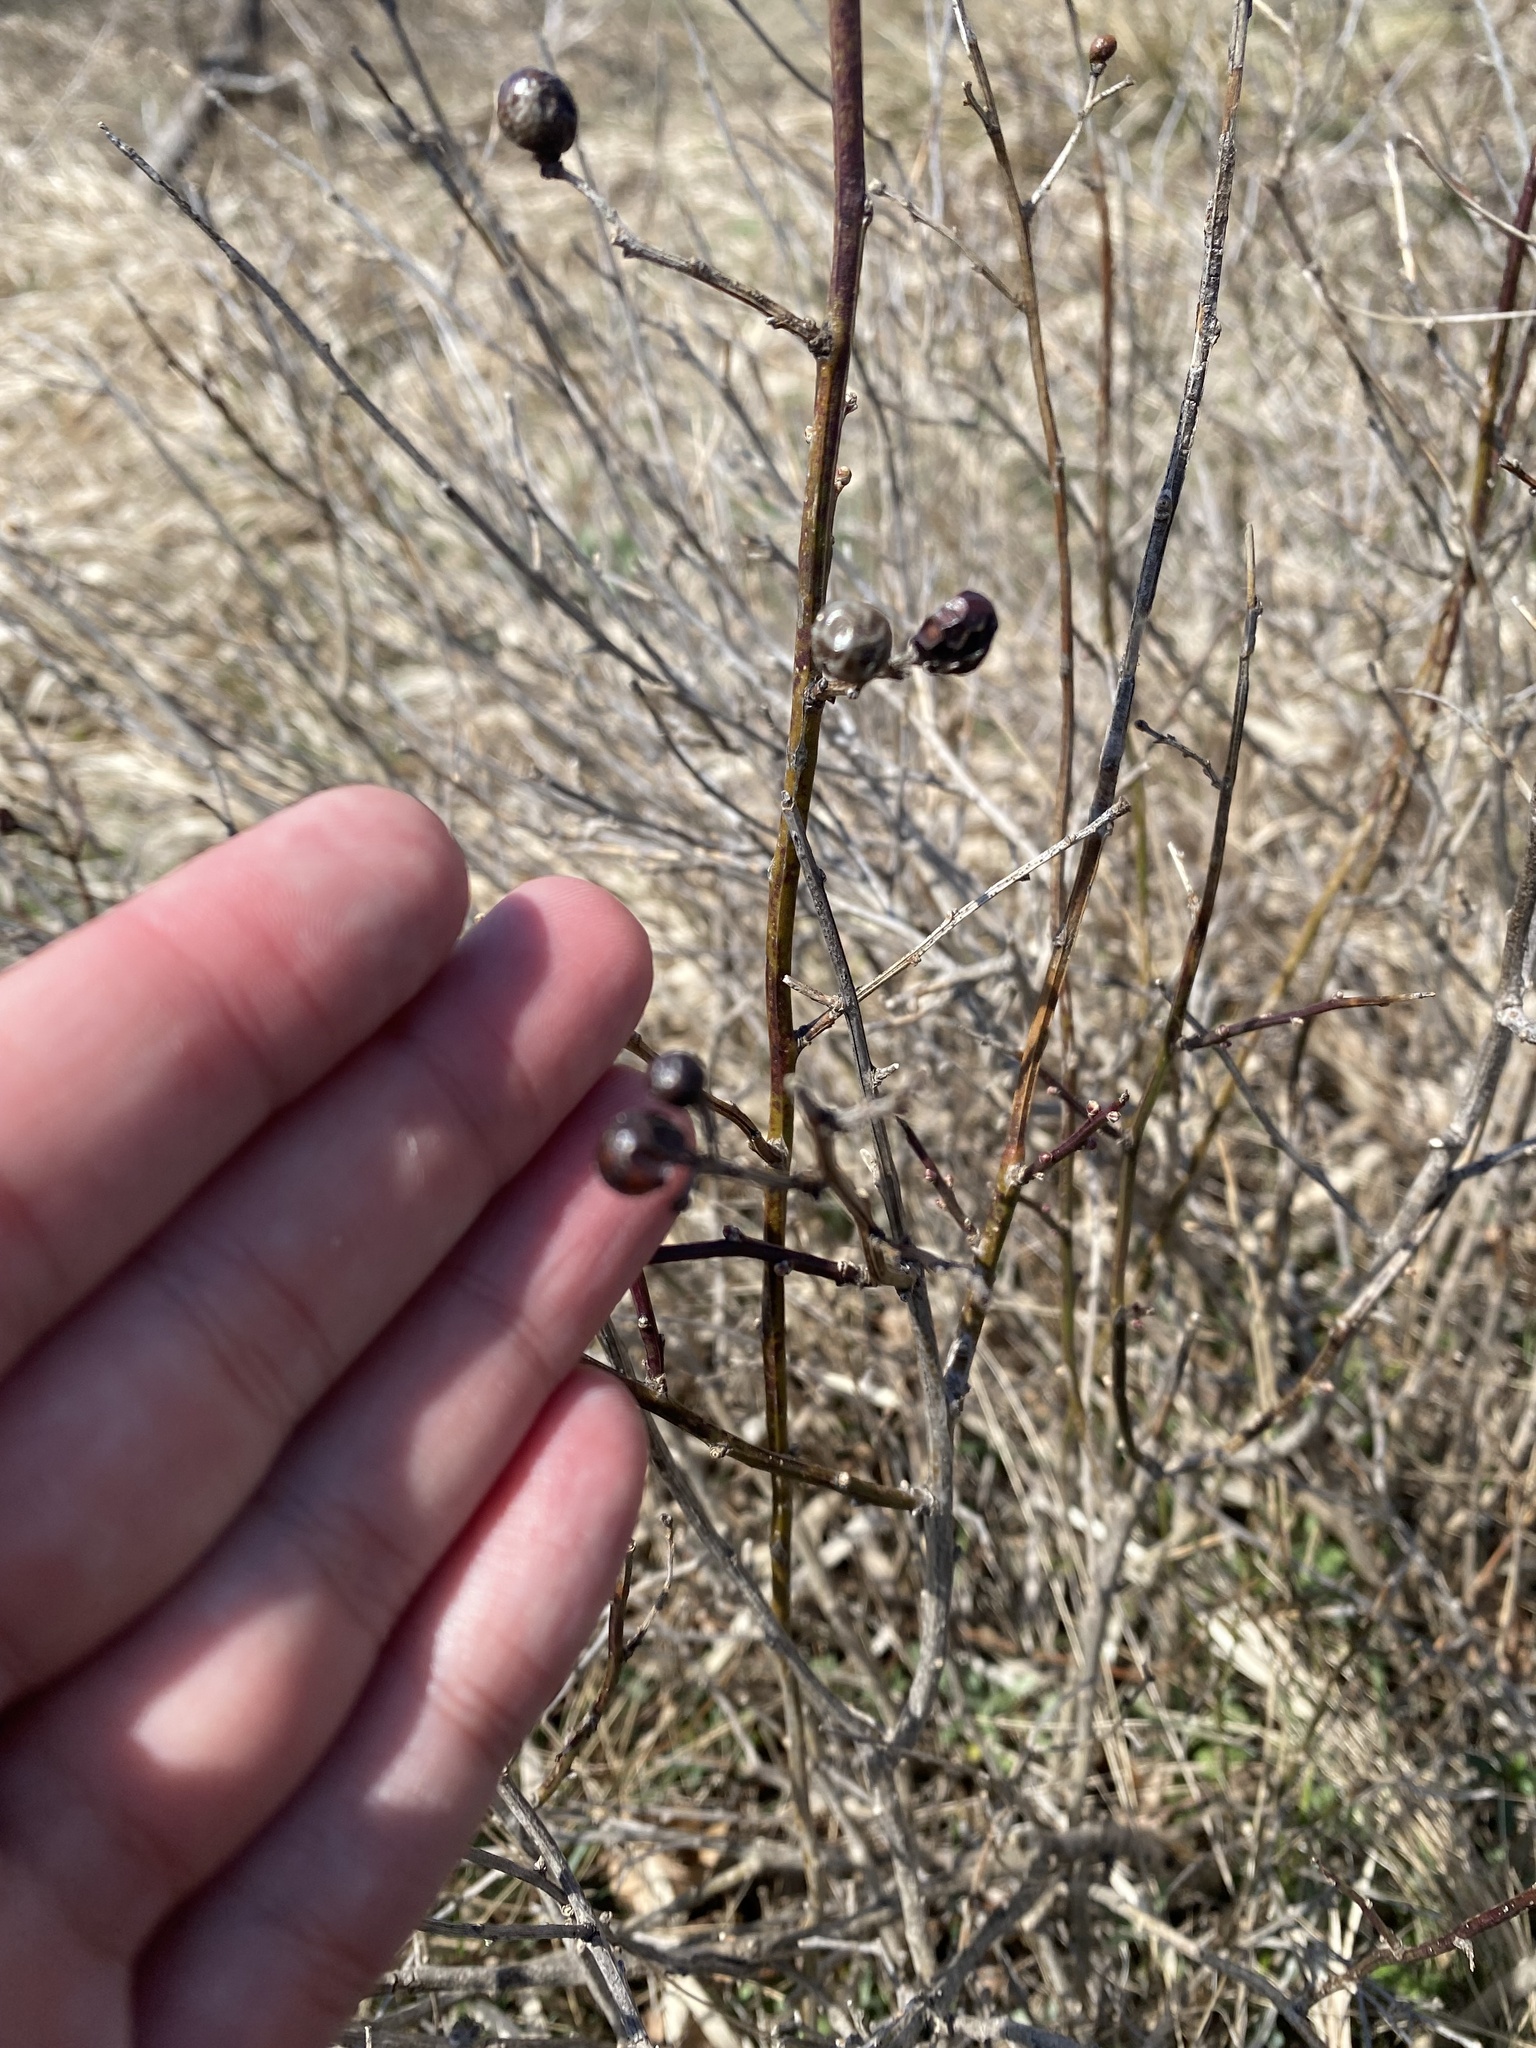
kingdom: Plantae
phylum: Tracheophyta
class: Magnoliopsida
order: Lamiales
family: Oleaceae
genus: Chrysojasminum
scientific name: Chrysojasminum fruticans
